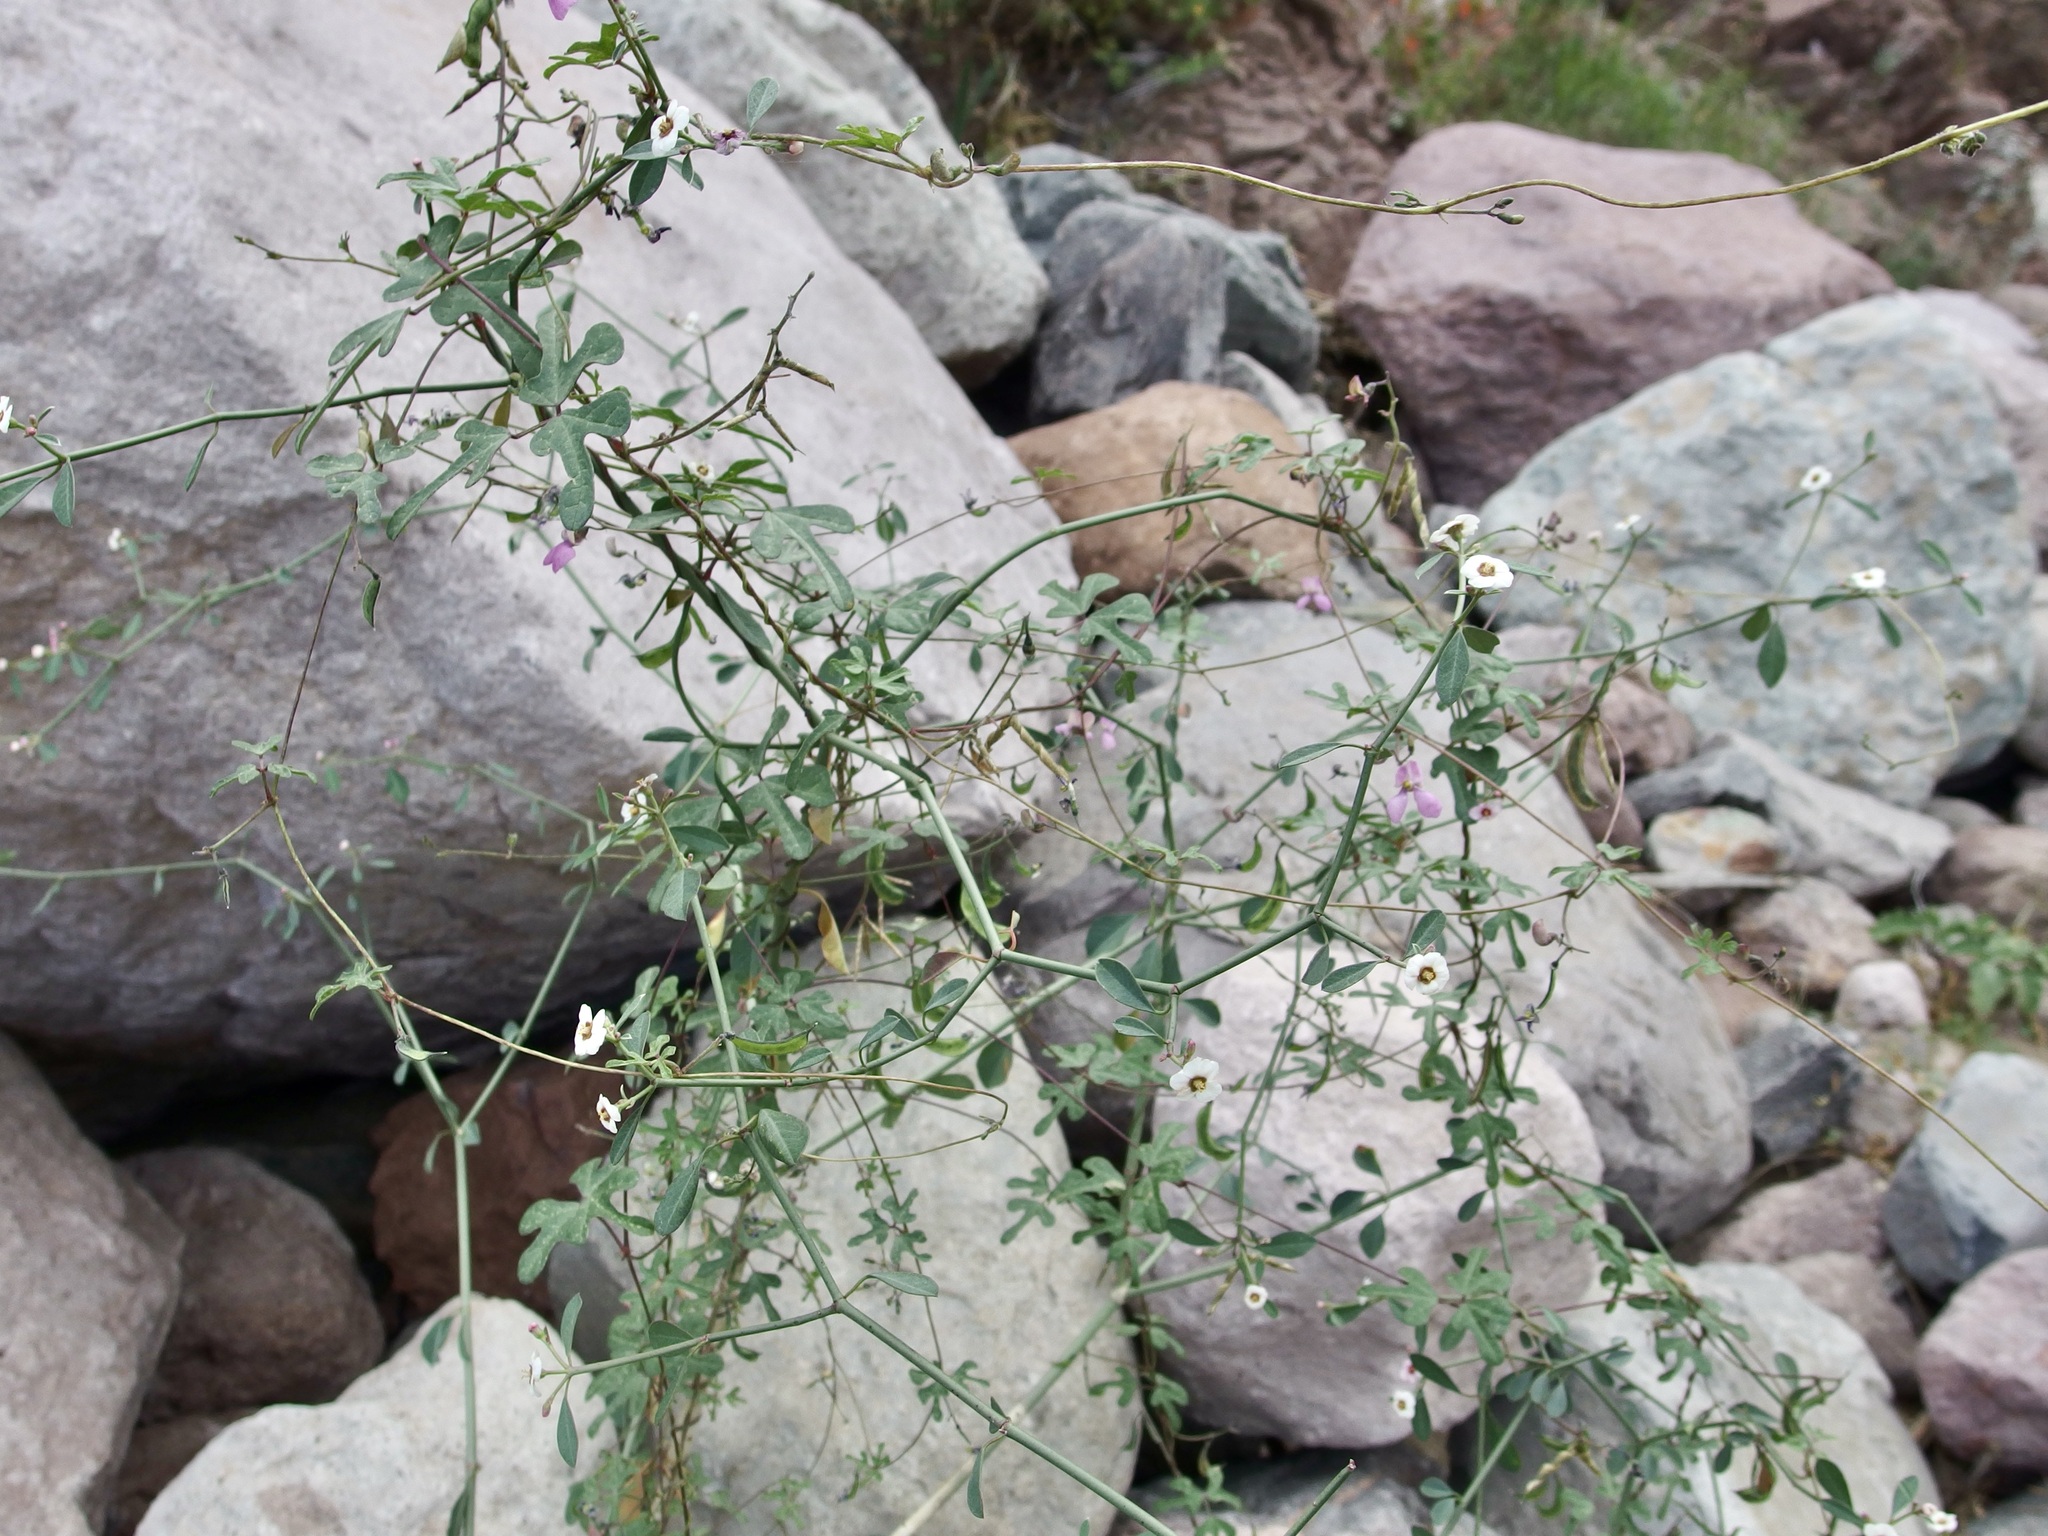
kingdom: Plantae
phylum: Tracheophyta
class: Magnoliopsida
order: Malpighiales
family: Euphorbiaceae
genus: Euphorbia
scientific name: Euphorbia xanti
